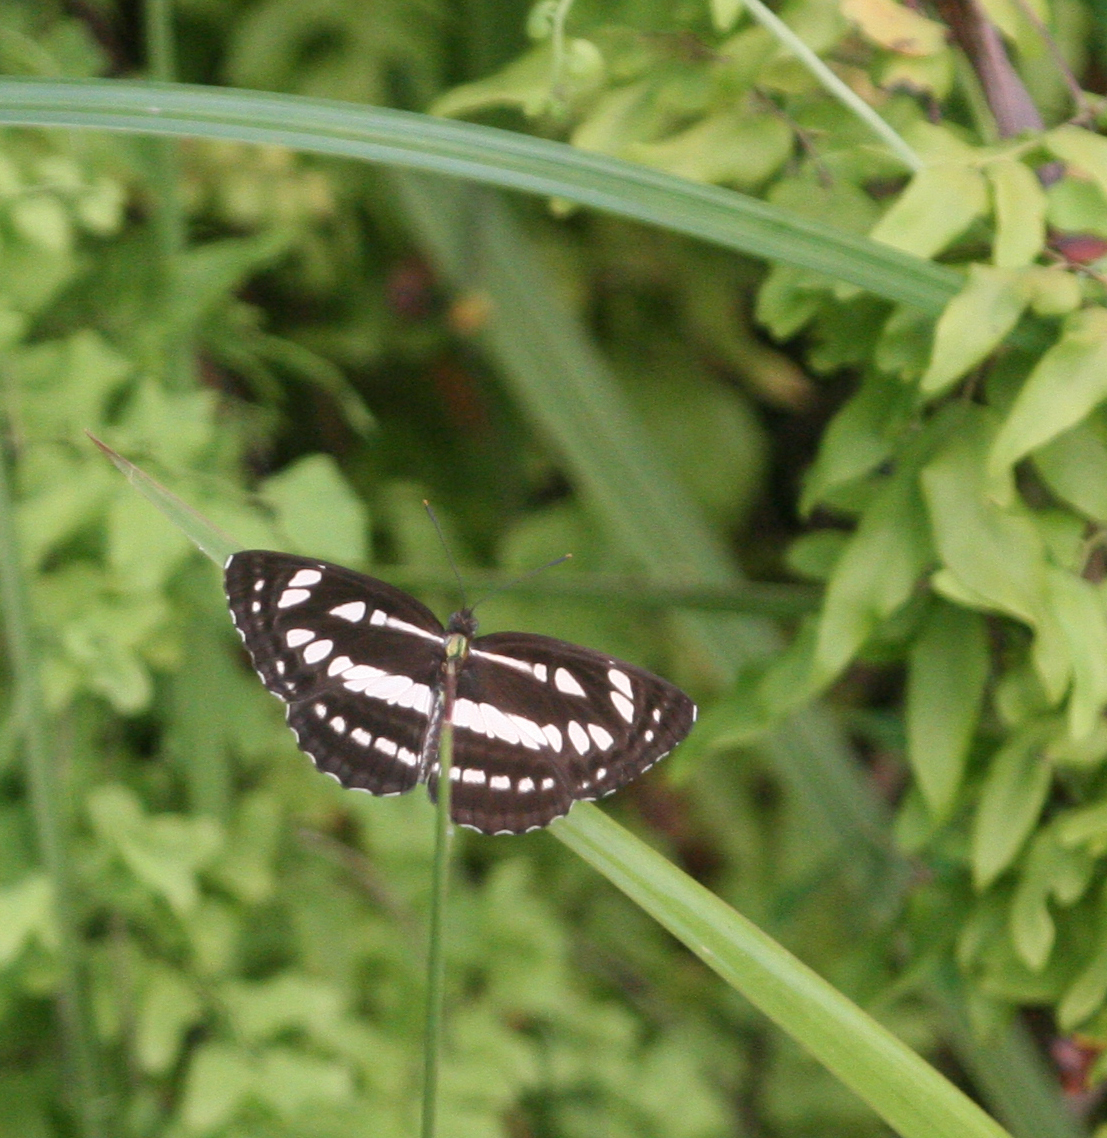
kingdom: Animalia
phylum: Arthropoda
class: Insecta
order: Lepidoptera
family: Nymphalidae
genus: Neptis
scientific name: Neptis hylas
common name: Common sailer
